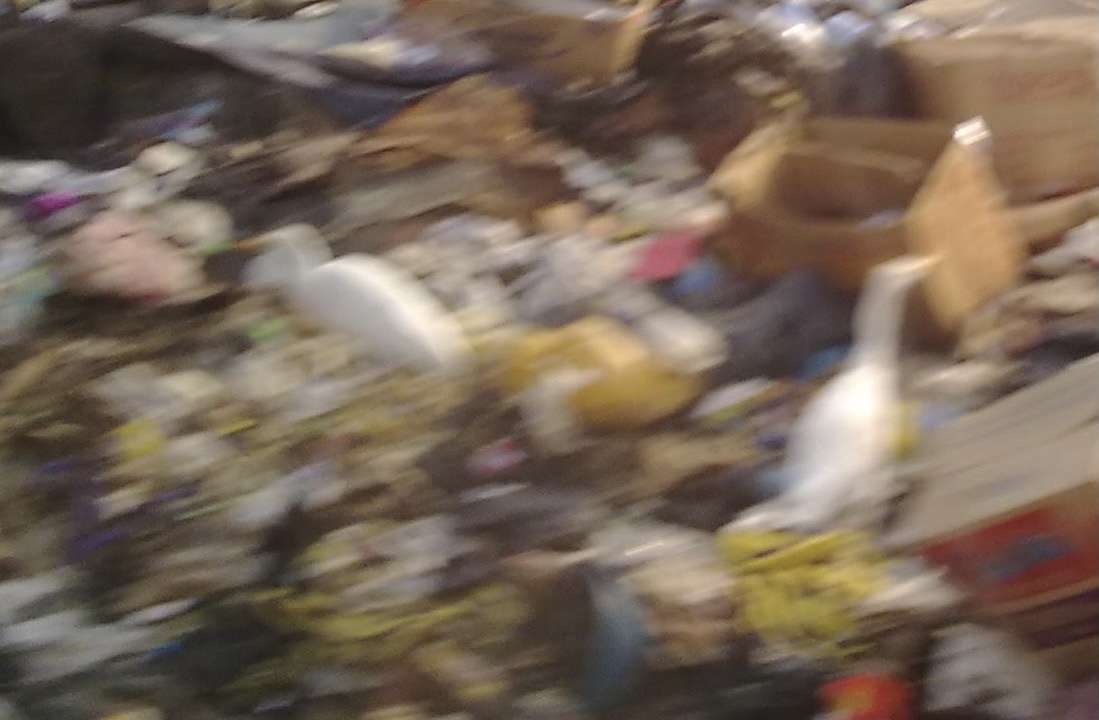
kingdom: Animalia
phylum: Chordata
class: Aves
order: Pelecaniformes
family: Ardeidae
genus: Bubulcus
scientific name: Bubulcus ibis
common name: Cattle egret
